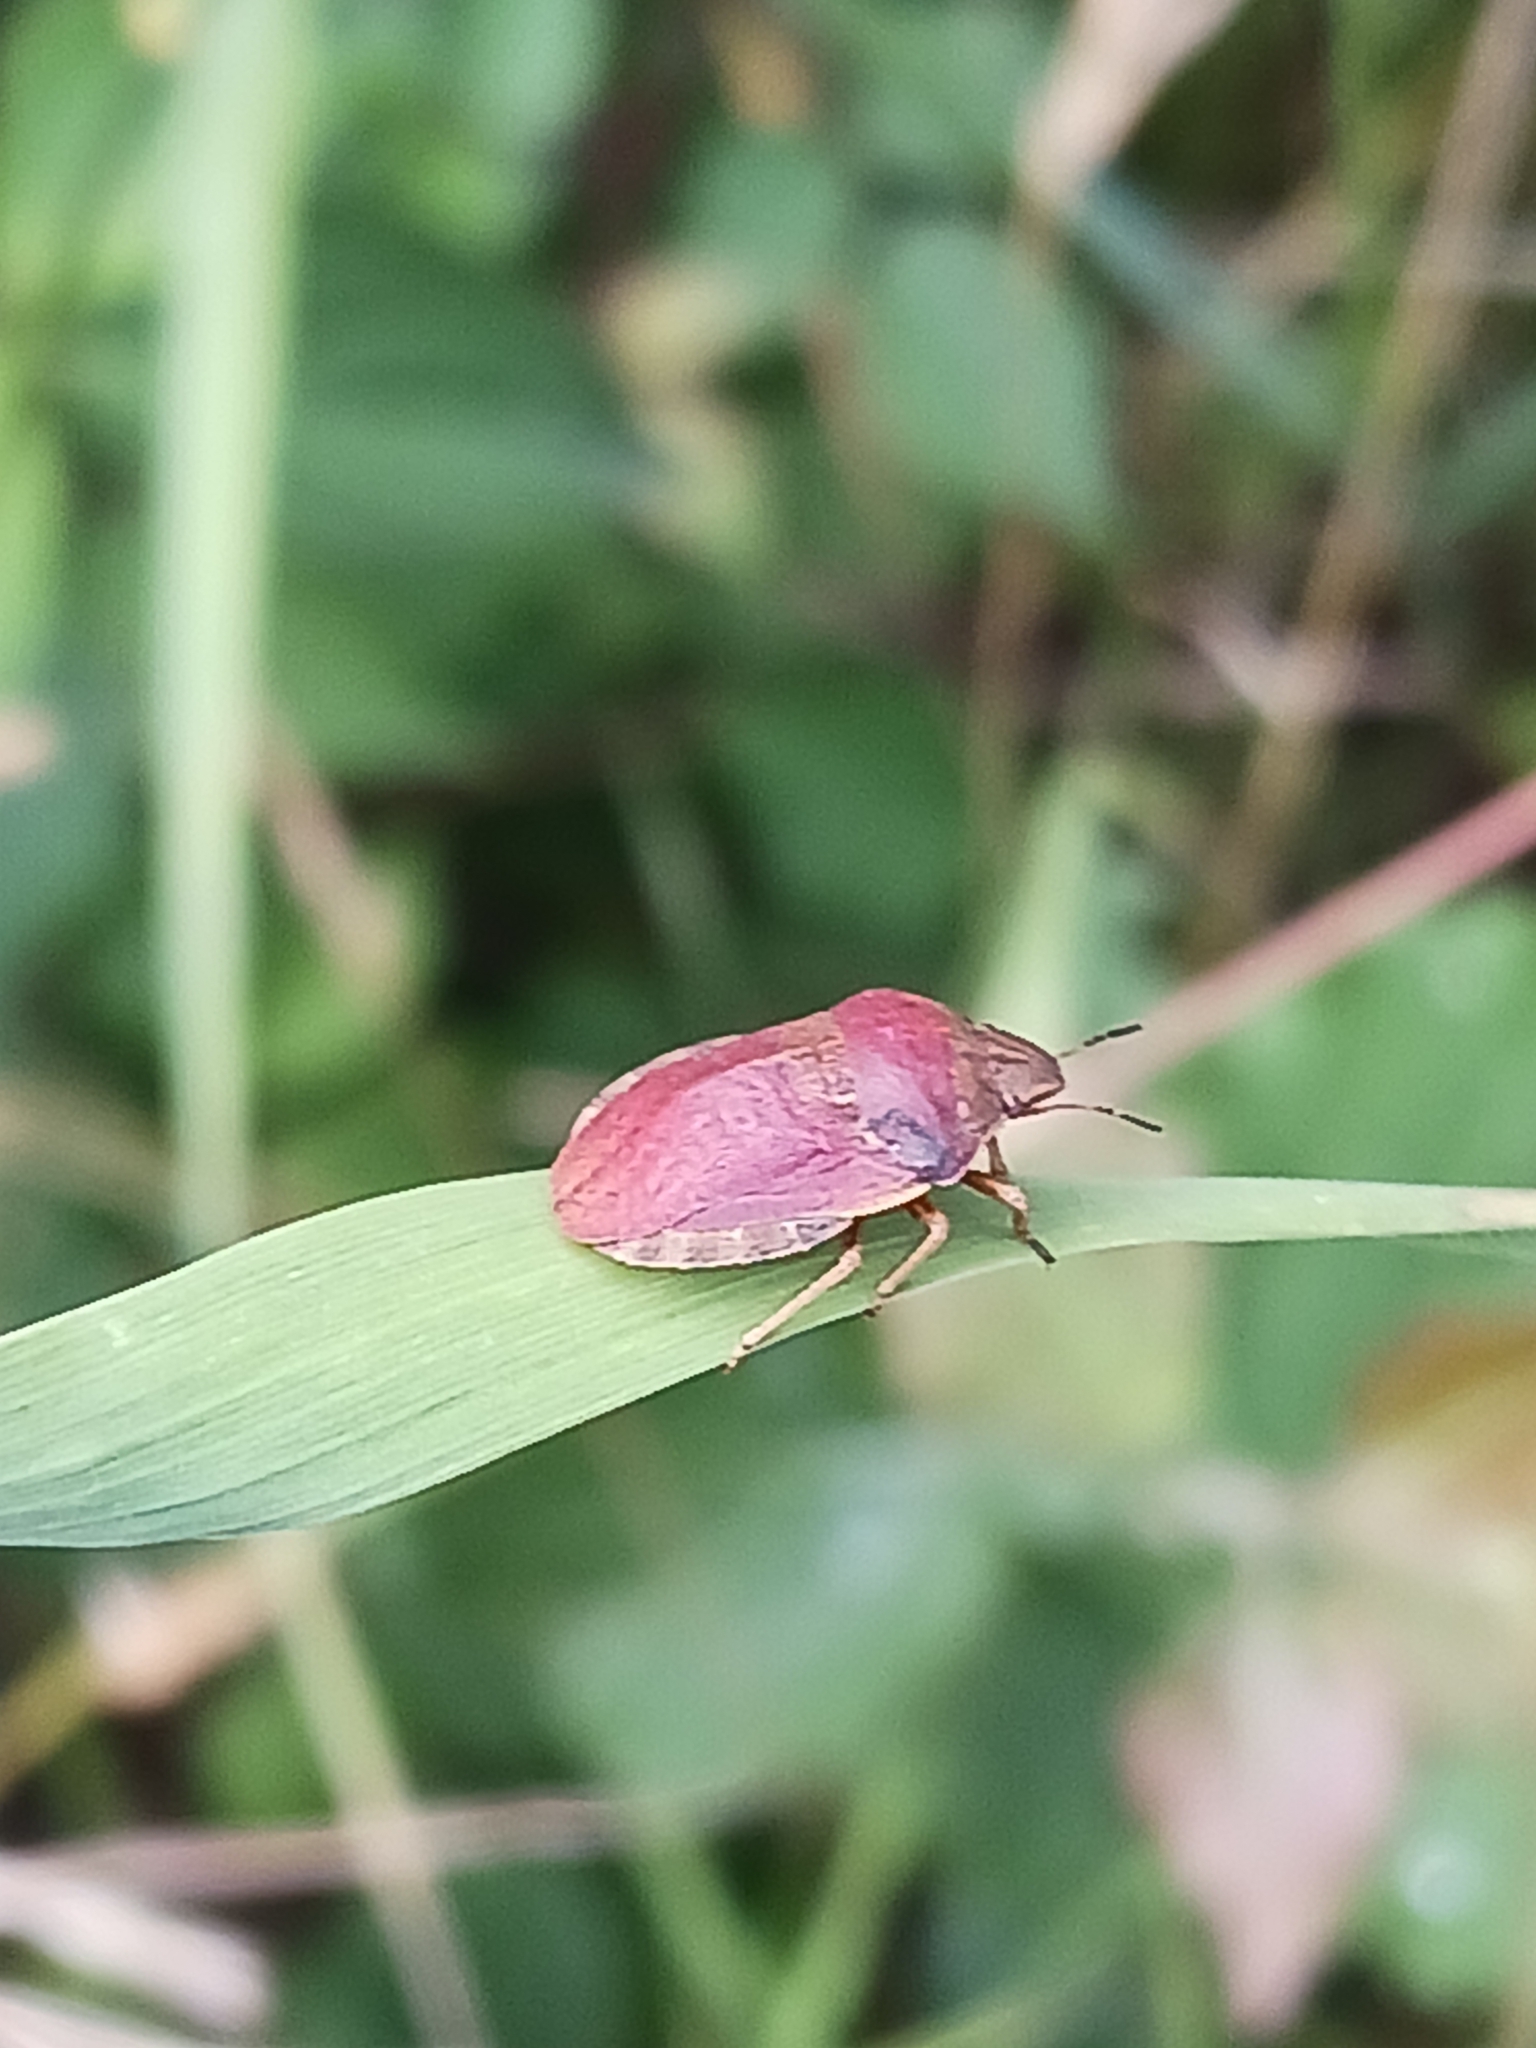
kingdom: Animalia
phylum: Arthropoda
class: Insecta
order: Hemiptera
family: Scutelleridae
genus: Eurygaster
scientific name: Eurygaster testudinaria
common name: Tortoise bug
